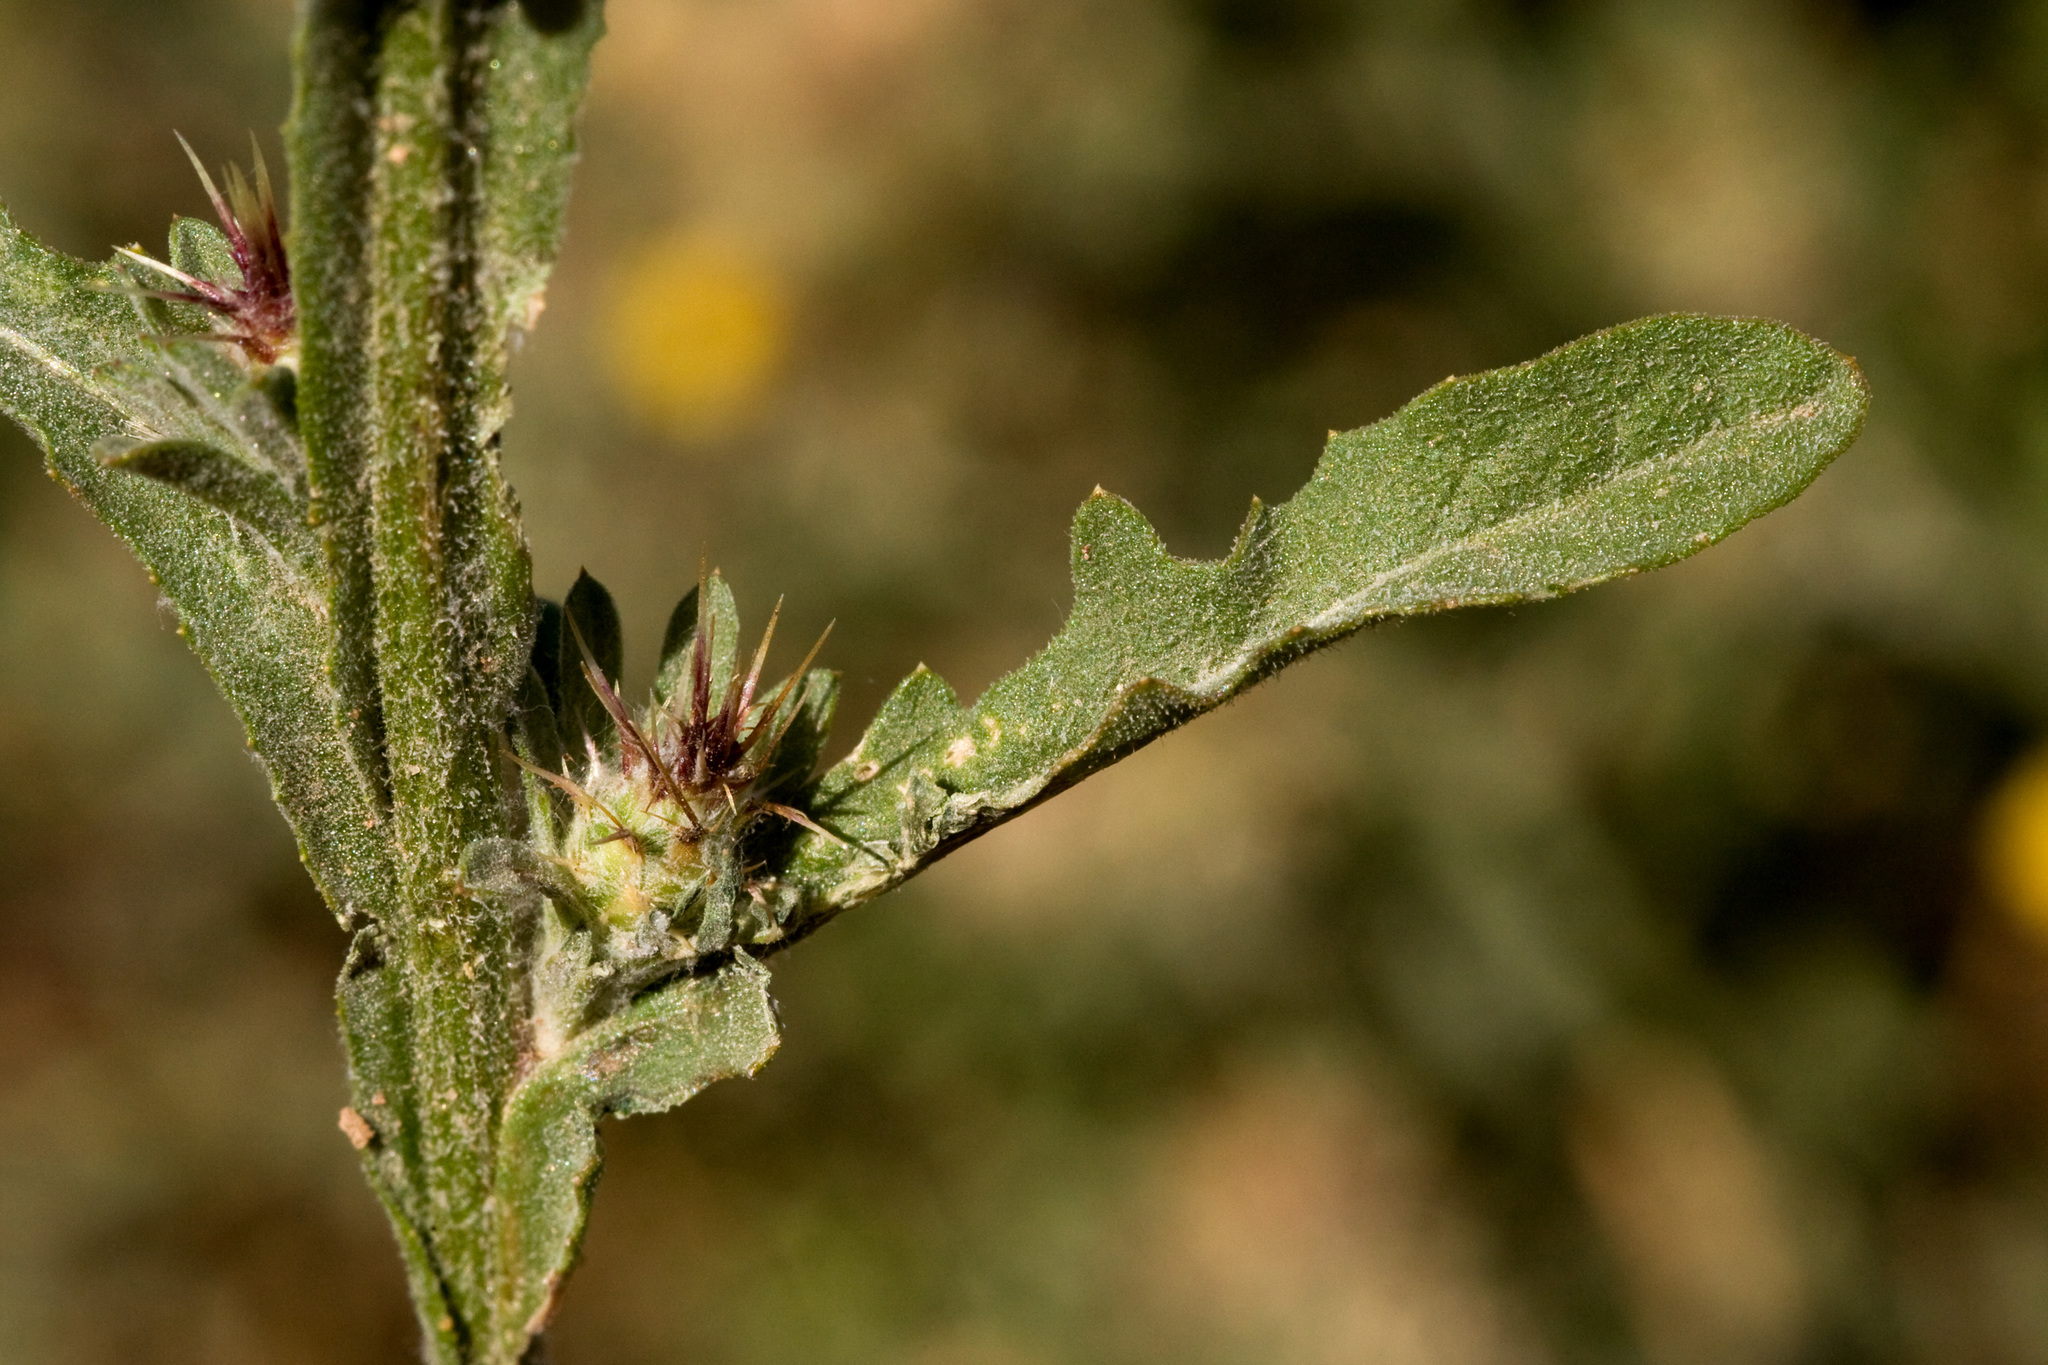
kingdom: Plantae
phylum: Tracheophyta
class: Magnoliopsida
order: Asterales
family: Asteraceae
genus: Centaurea
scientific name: Centaurea melitensis
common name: Maltese star-thistle
